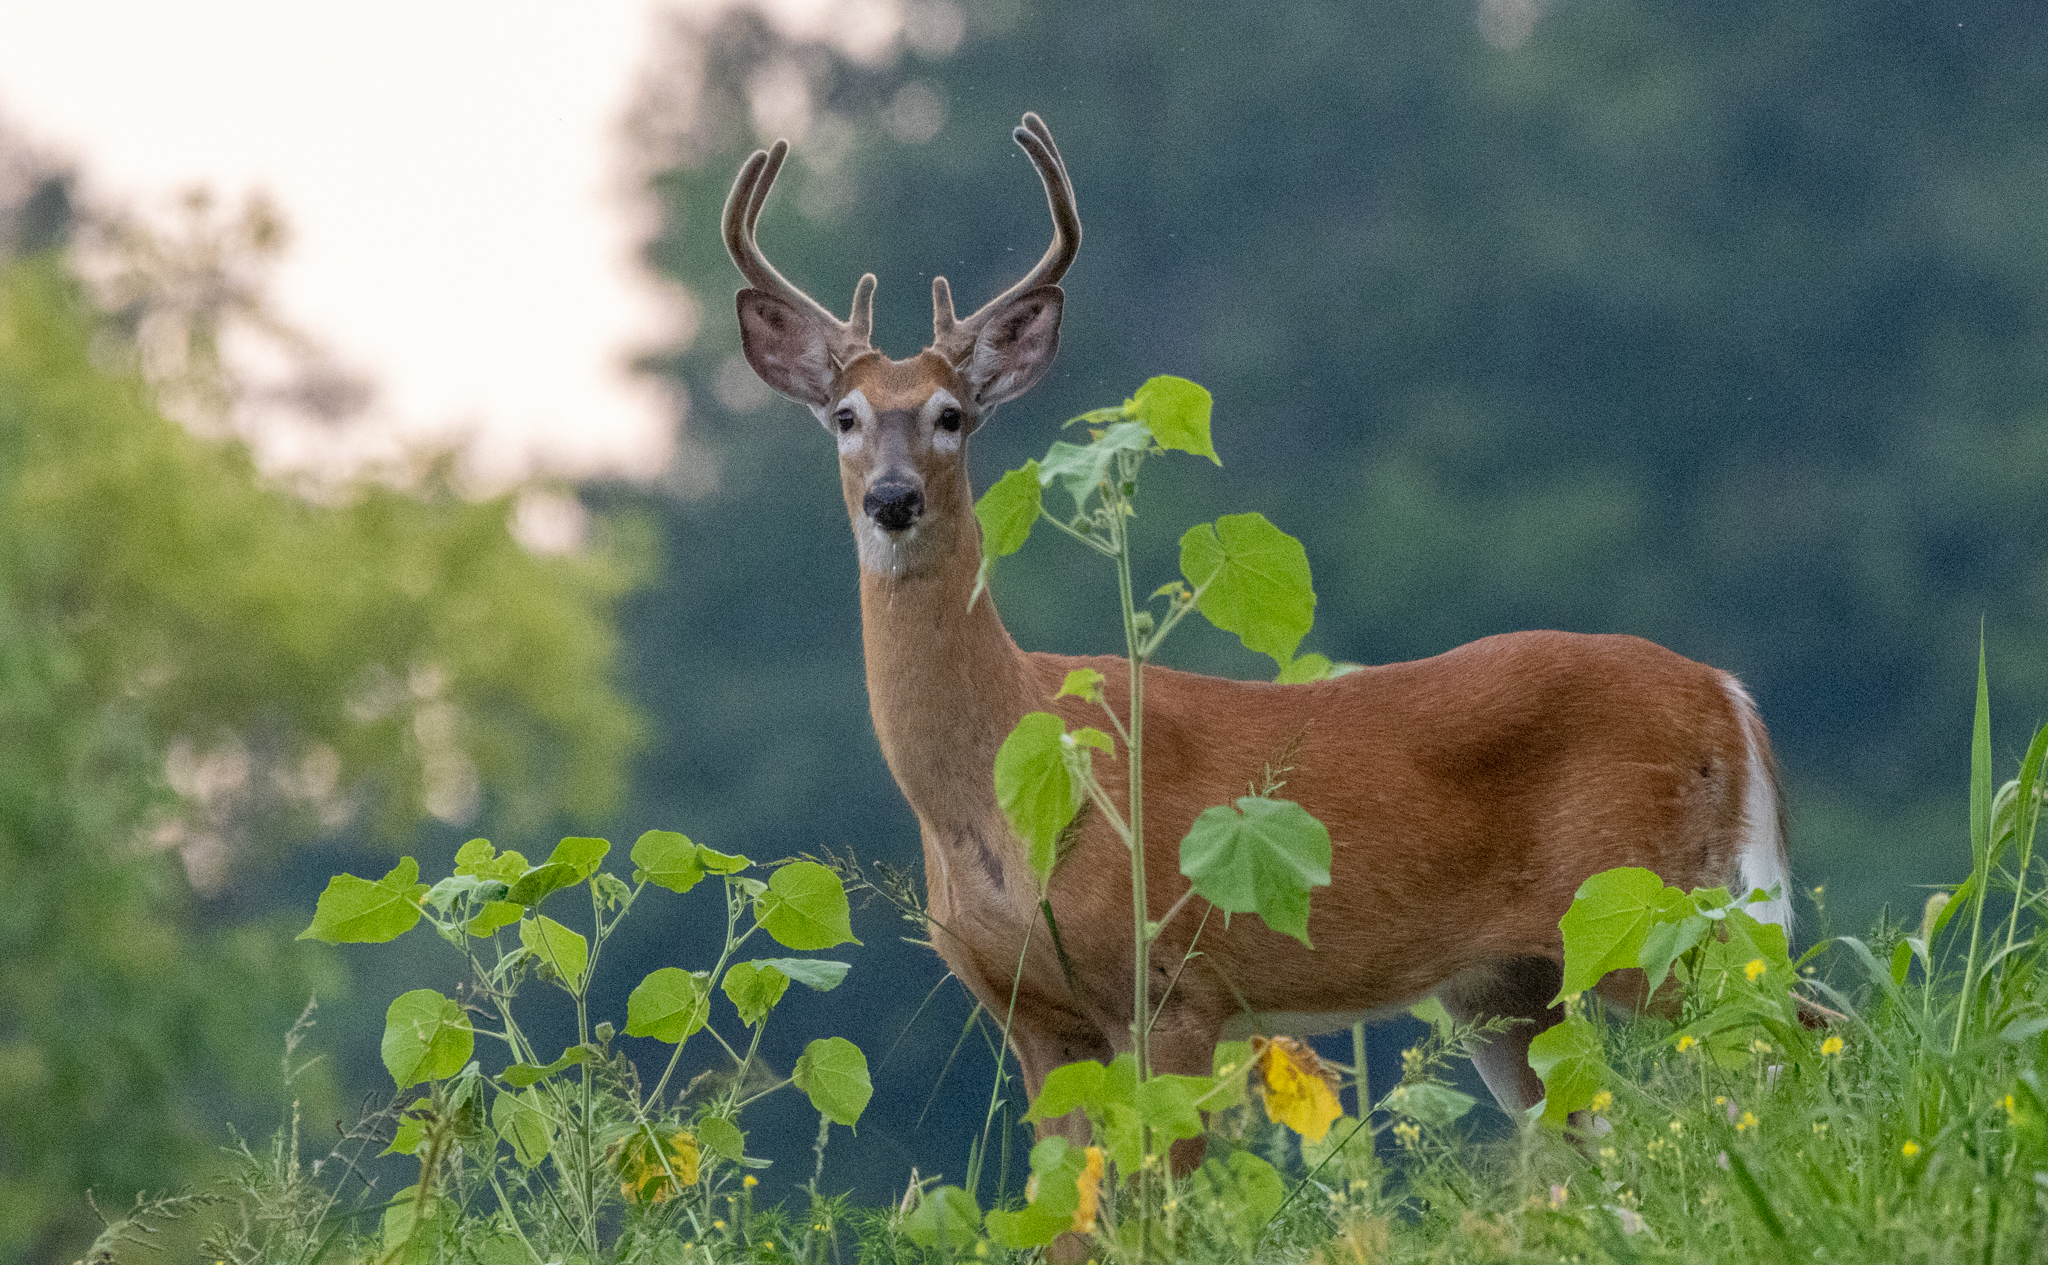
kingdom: Animalia
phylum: Chordata
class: Mammalia
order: Artiodactyla
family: Cervidae
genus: Odocoileus
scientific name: Odocoileus virginianus
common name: White-tailed deer
